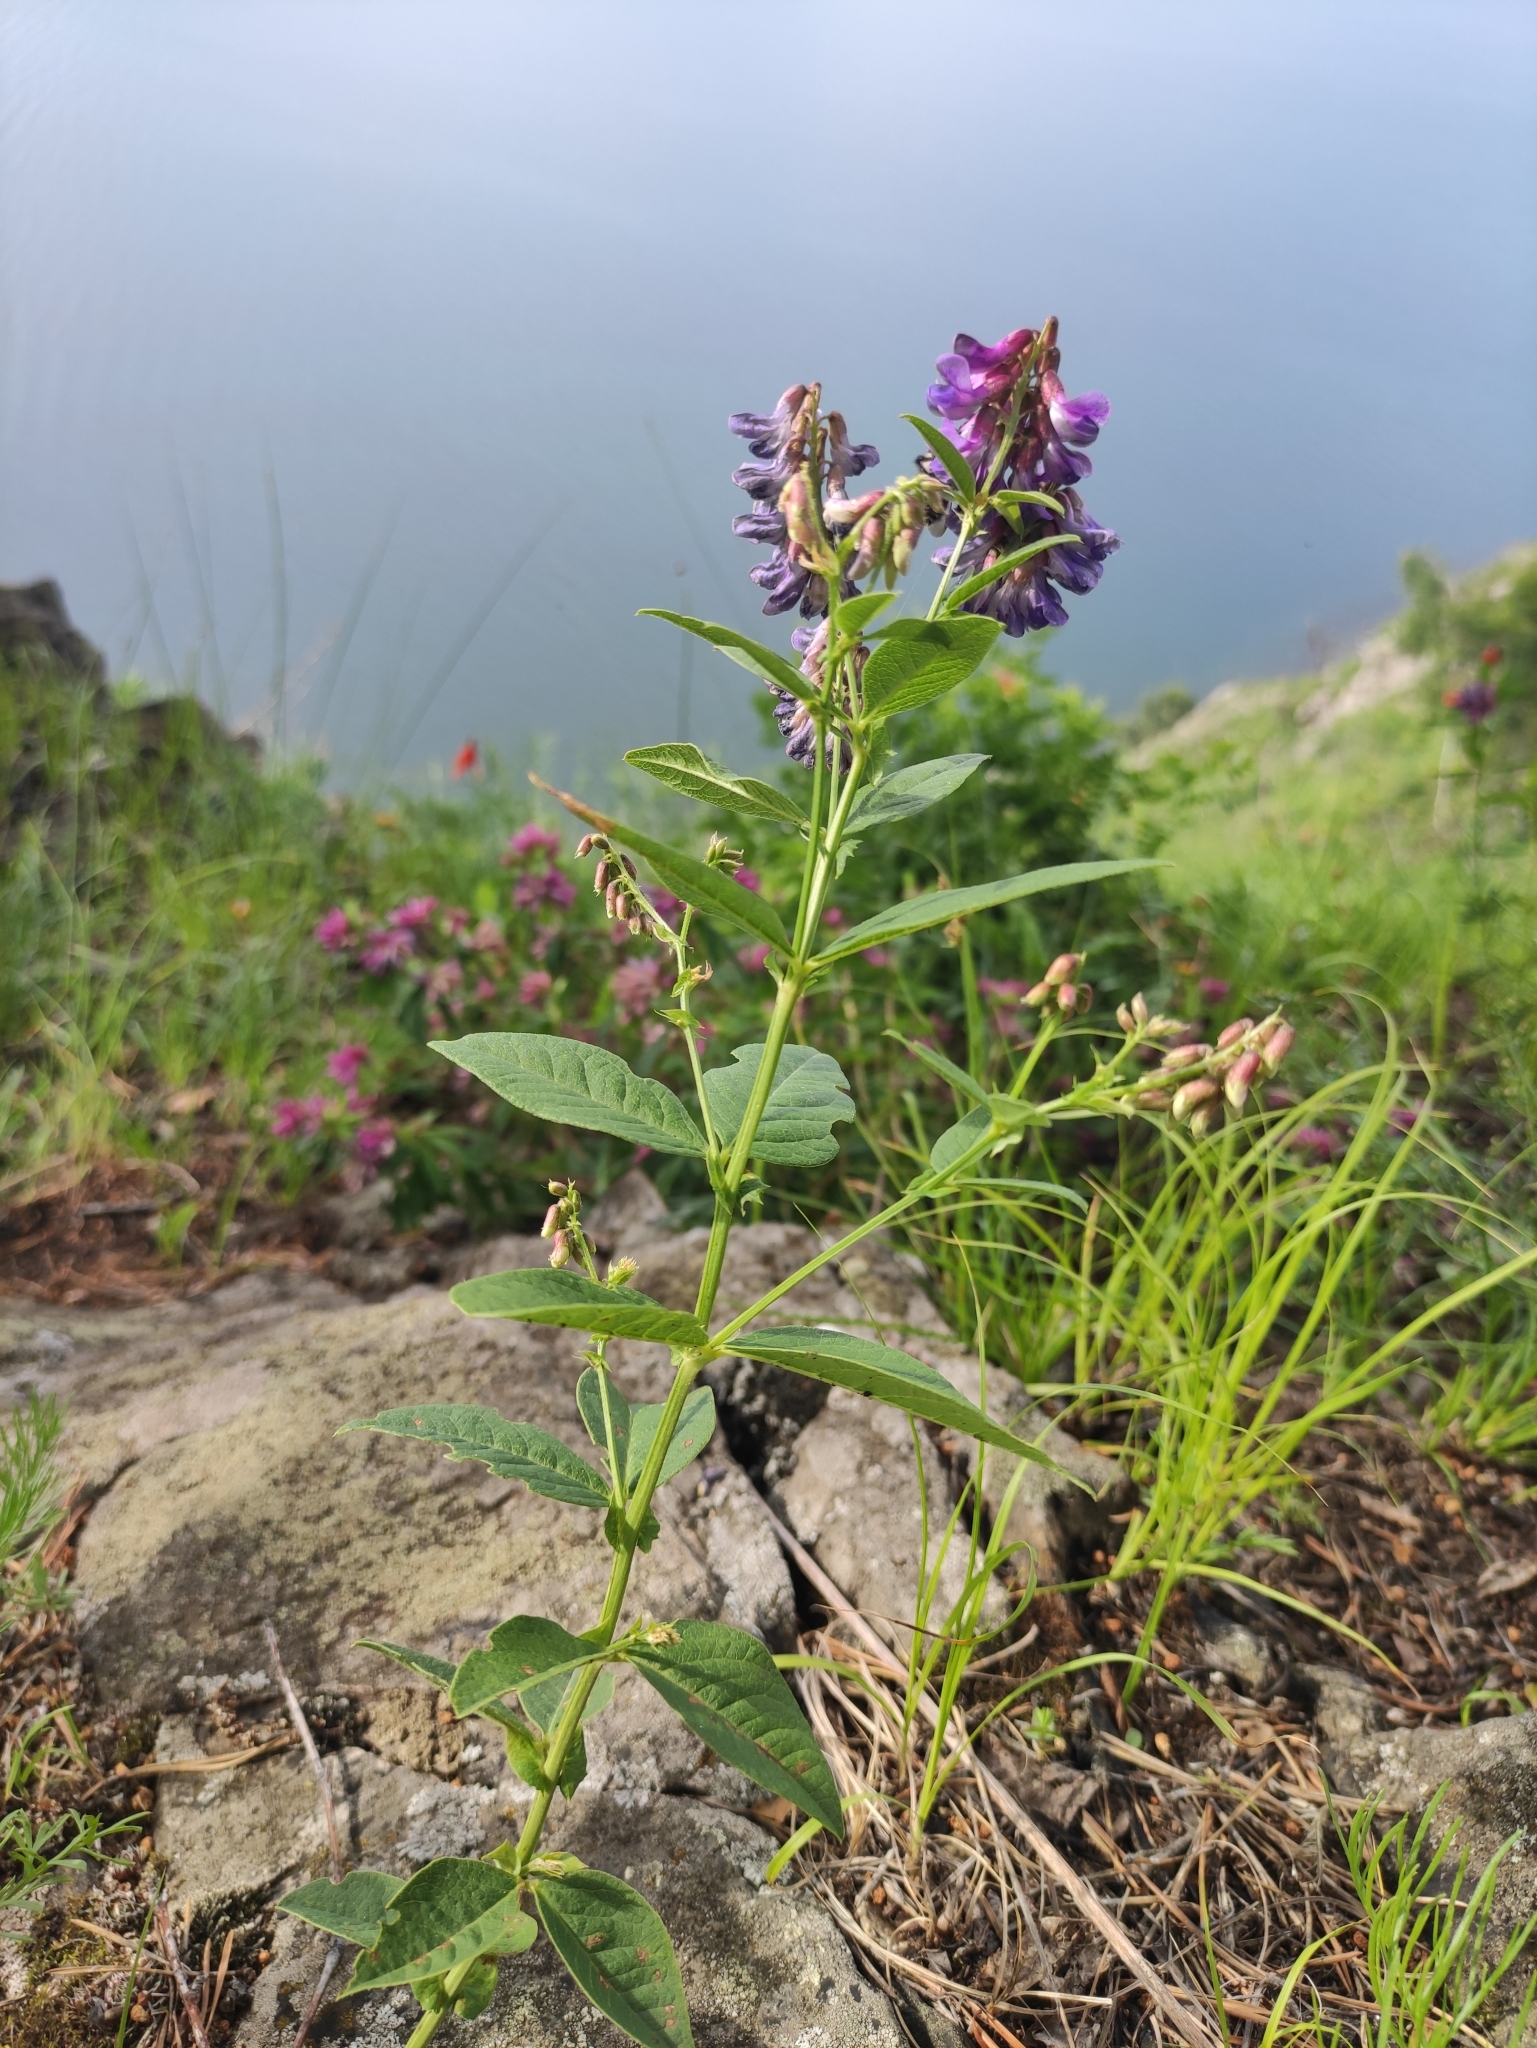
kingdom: Plantae
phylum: Tracheophyta
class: Magnoliopsida
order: Fabales
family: Fabaceae
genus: Vicia
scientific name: Vicia unijuga
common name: Two-leaf vetch
